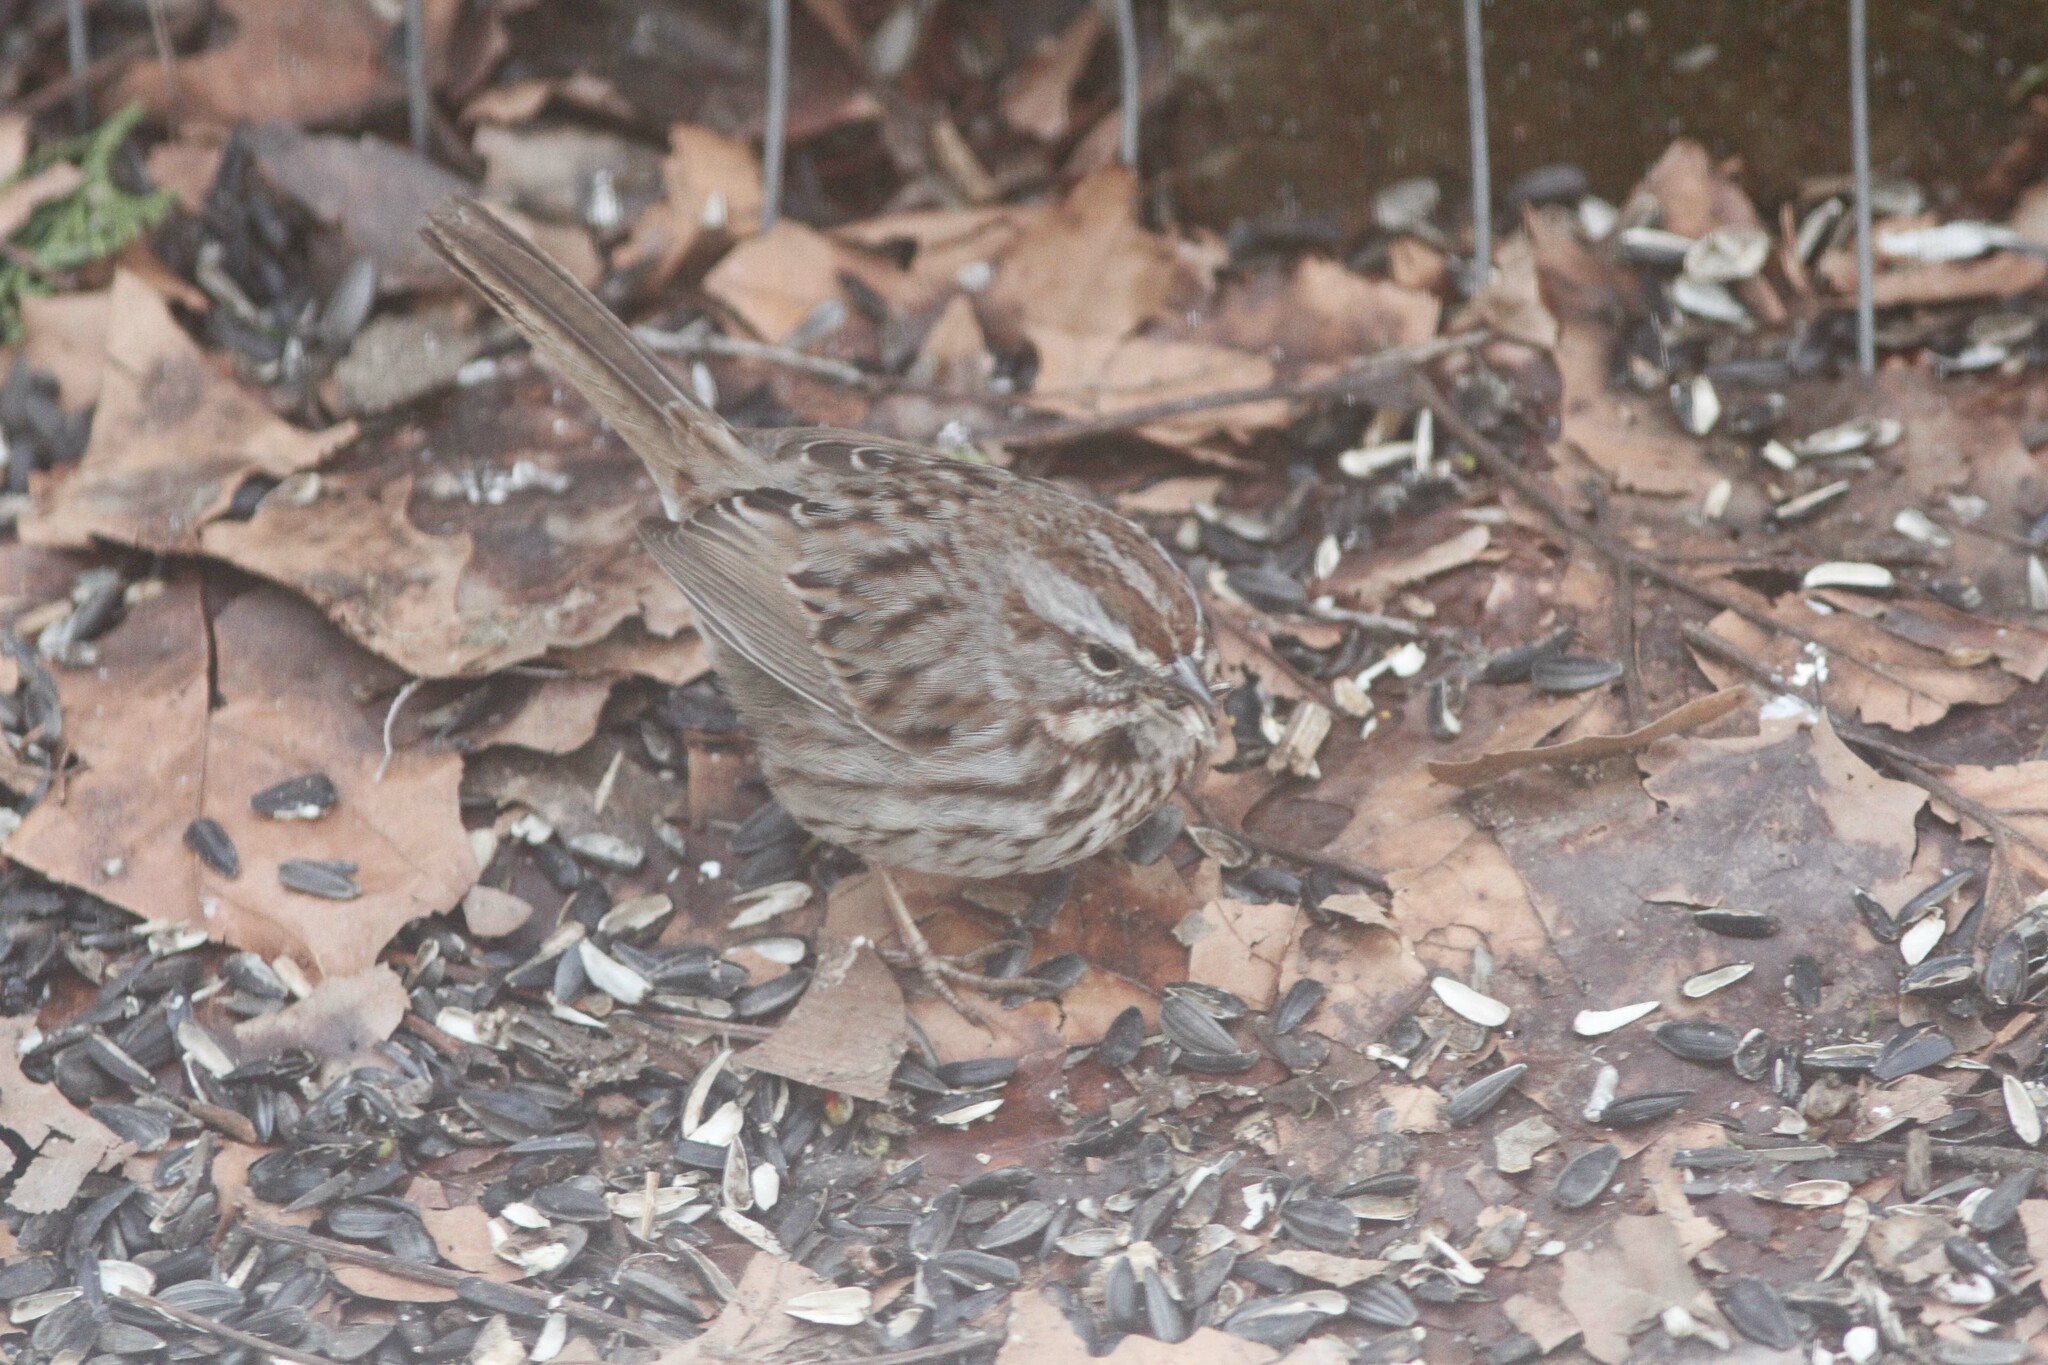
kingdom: Animalia
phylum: Chordata
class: Aves
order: Passeriformes
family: Passerellidae
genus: Melospiza
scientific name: Melospiza melodia
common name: Song sparrow
